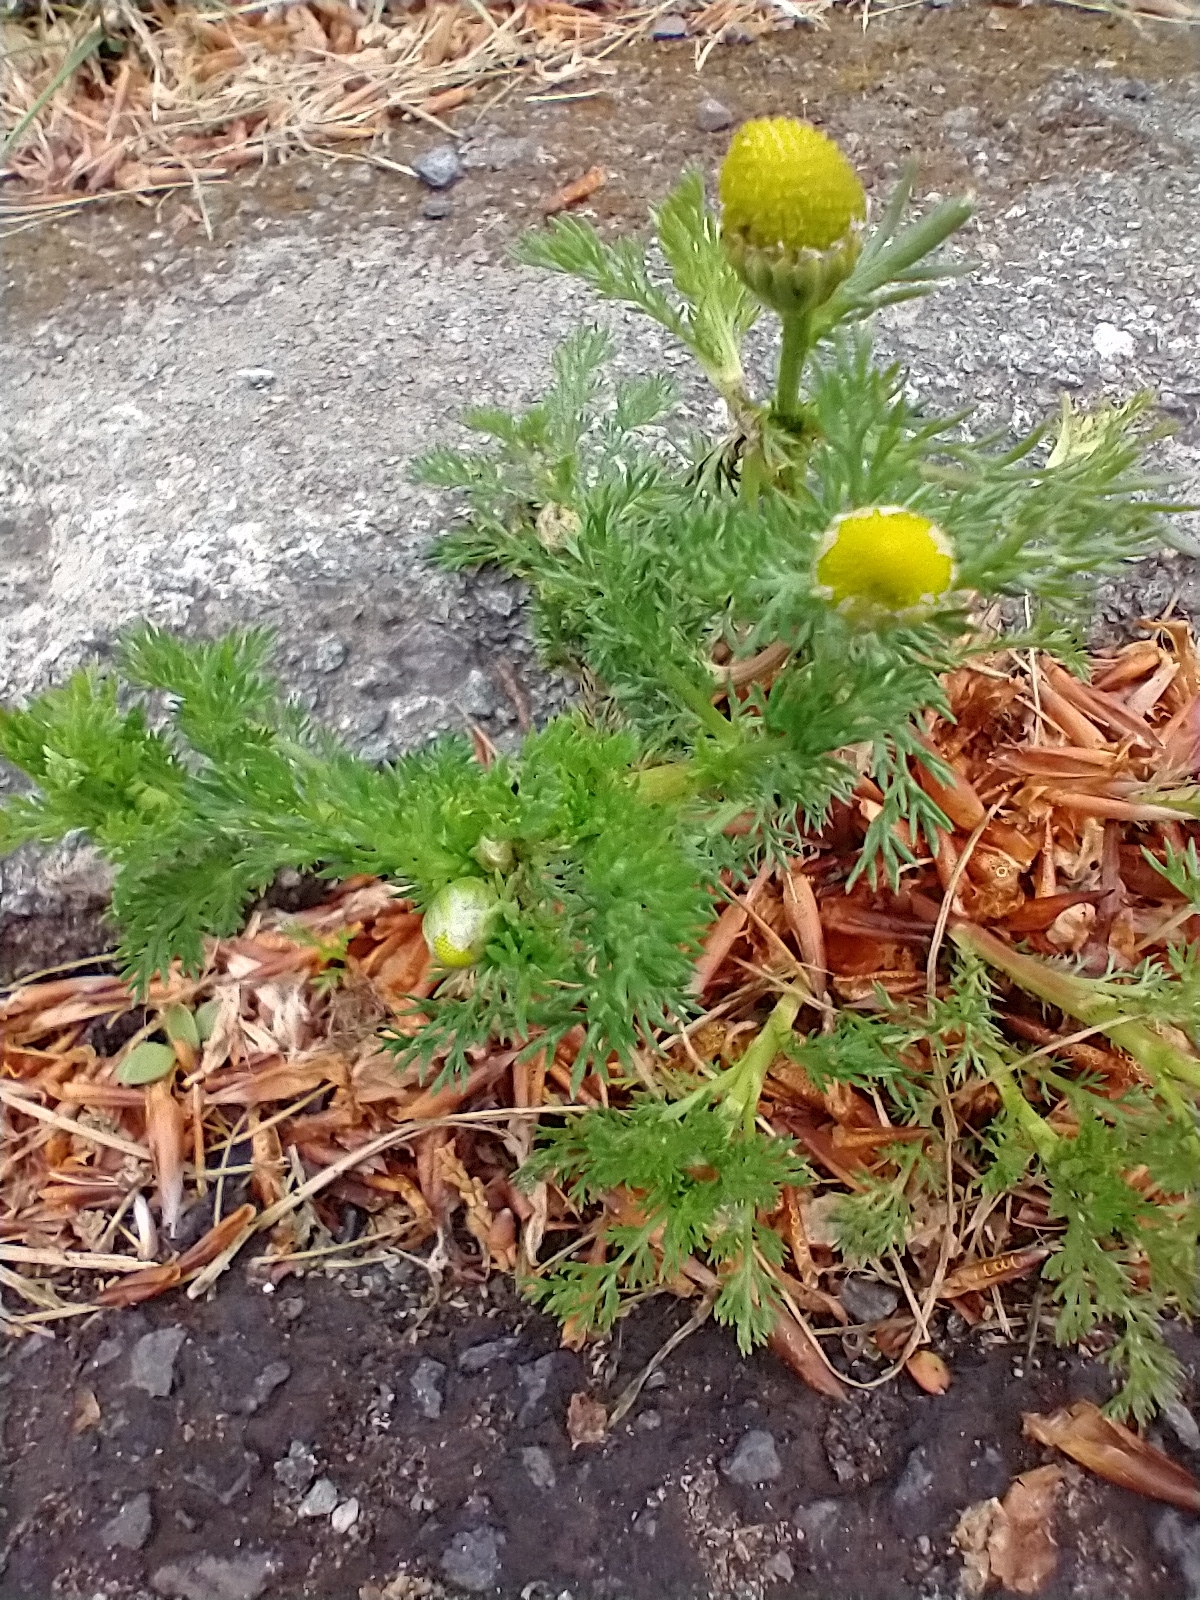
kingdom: Plantae
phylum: Tracheophyta
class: Magnoliopsida
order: Asterales
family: Asteraceae
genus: Matricaria
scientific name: Matricaria discoidea
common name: Disc mayweed
